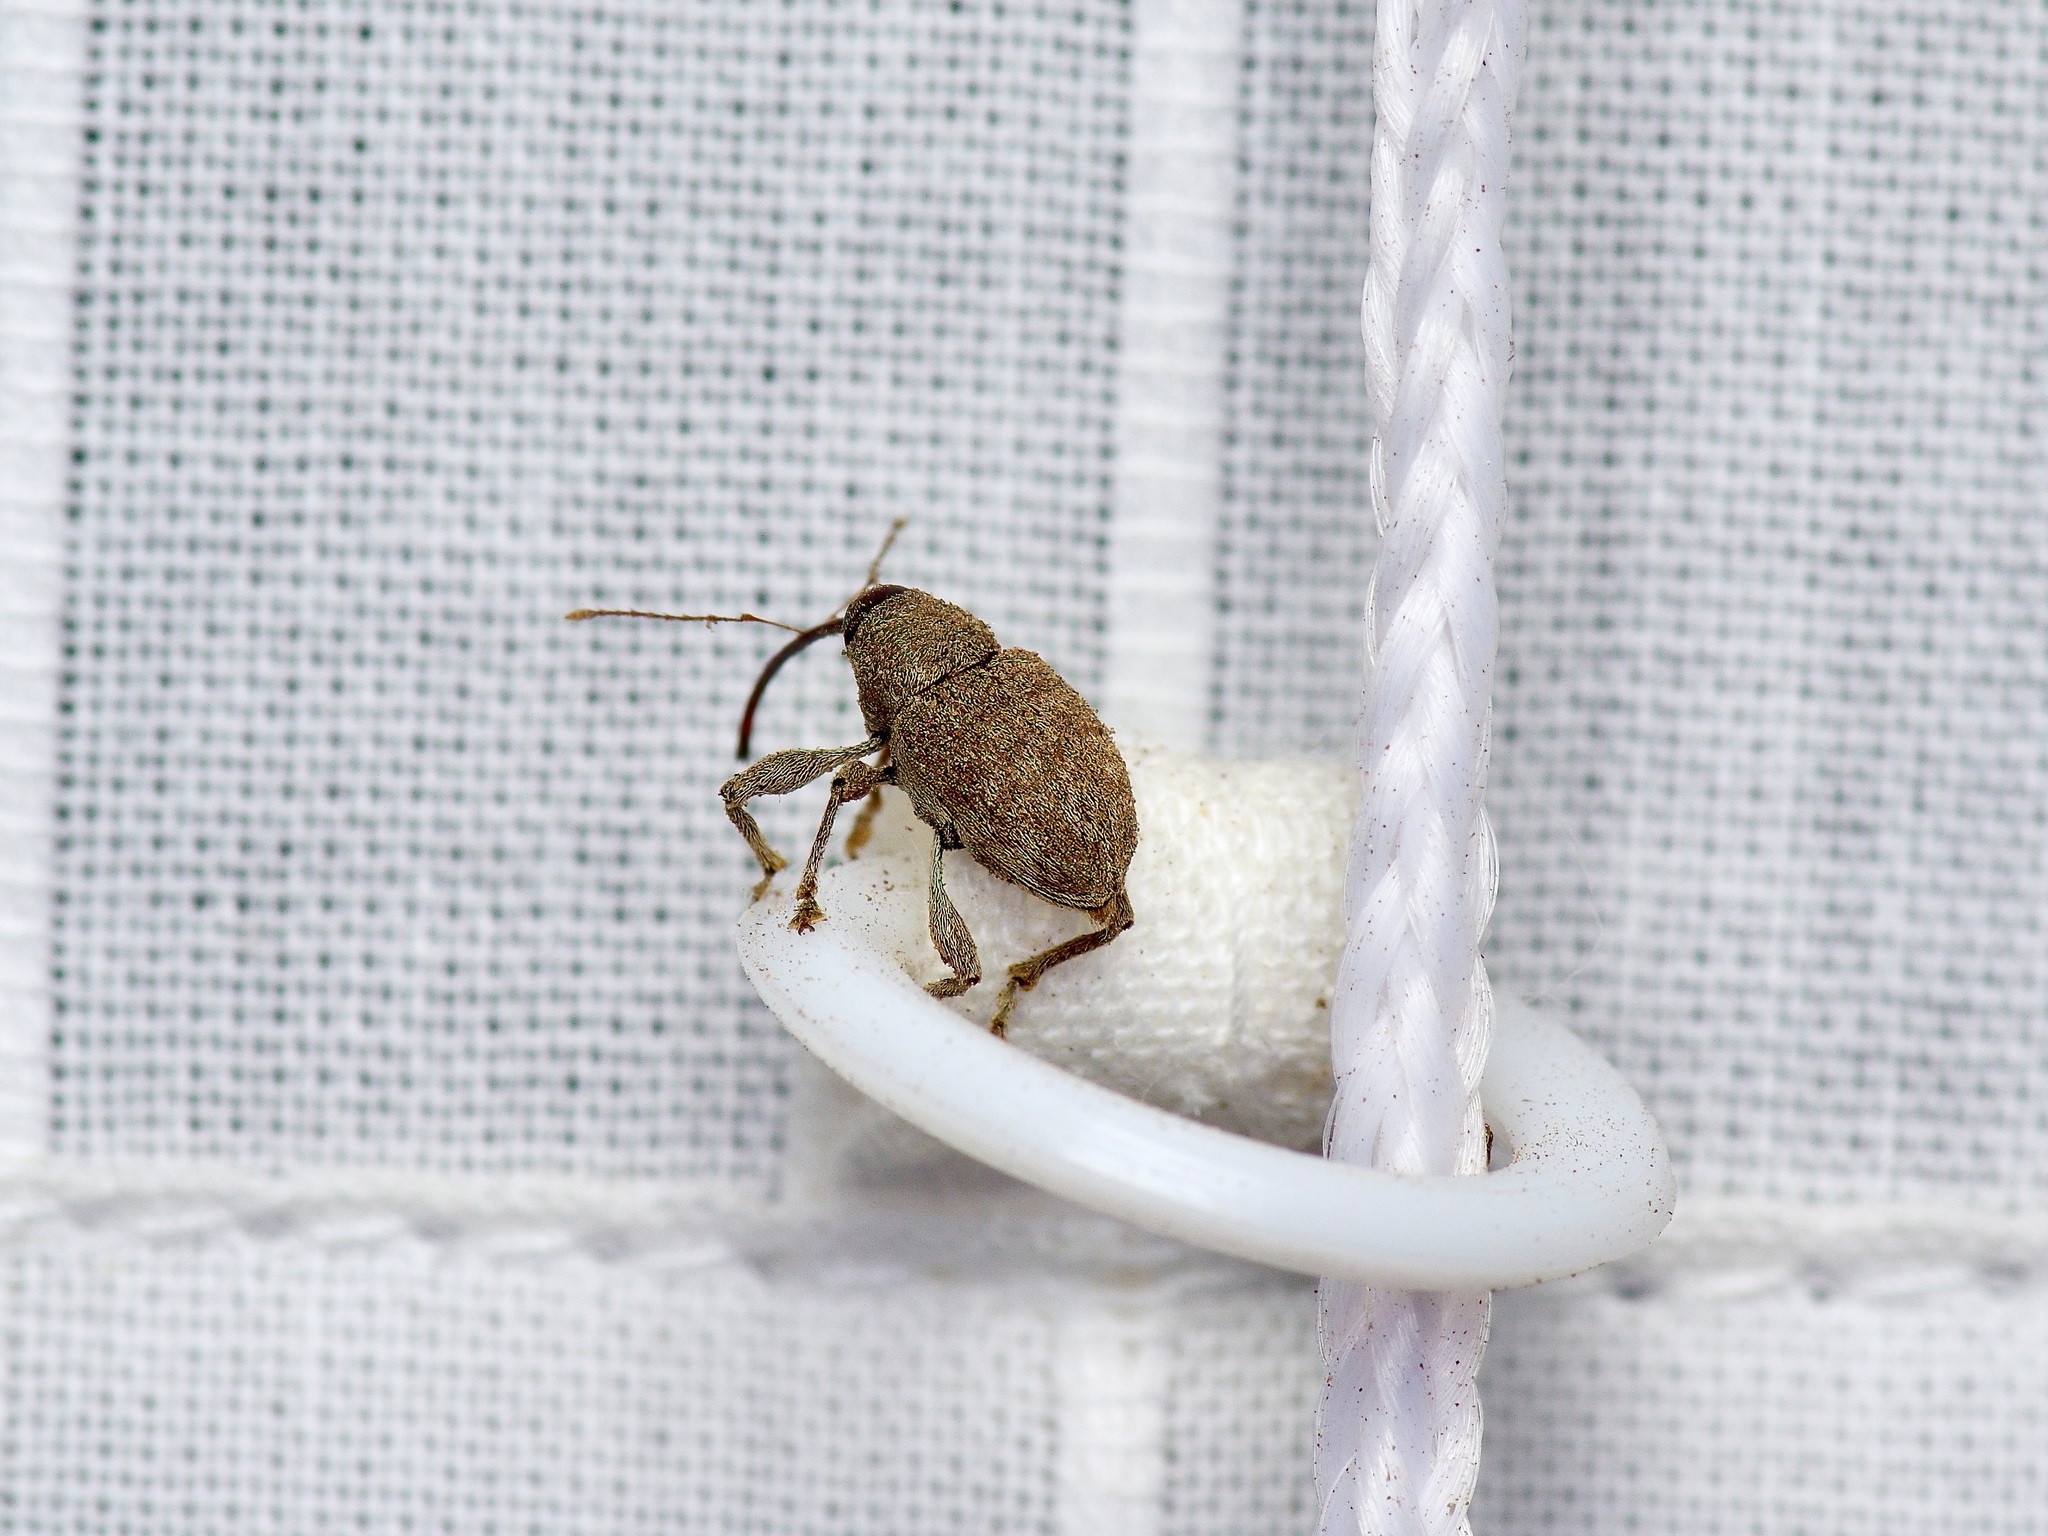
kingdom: Animalia
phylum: Arthropoda
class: Insecta
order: Coleoptera
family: Curculionidae
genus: Curculio
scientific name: Curculio
